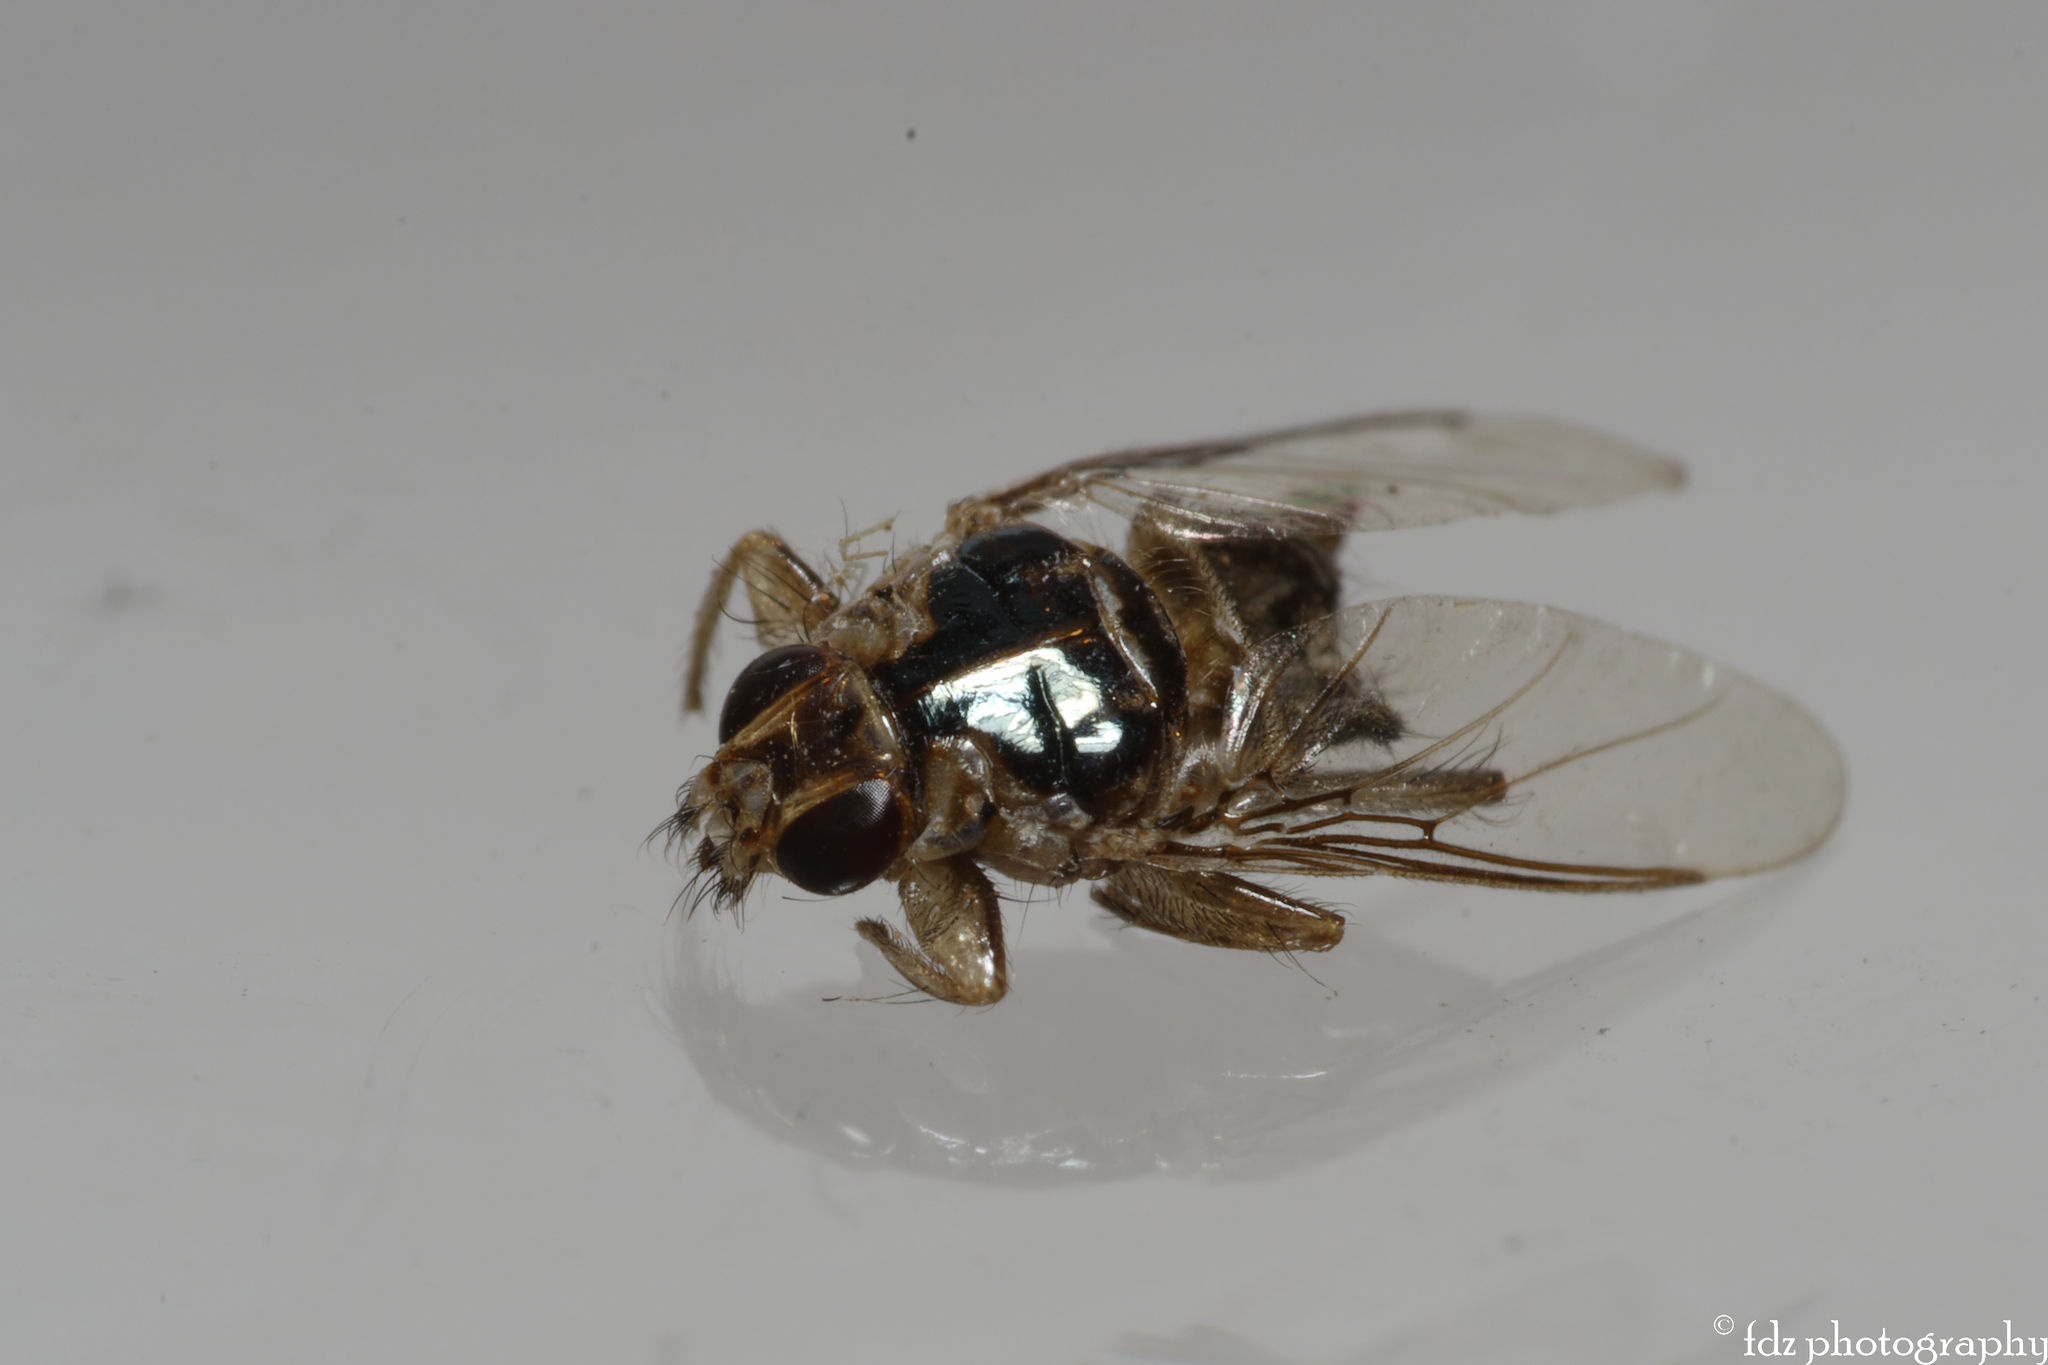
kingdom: Animalia
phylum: Arthropoda
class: Insecta
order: Diptera
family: Hippoboscidae
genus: Hippobosca
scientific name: Hippobosca equina
